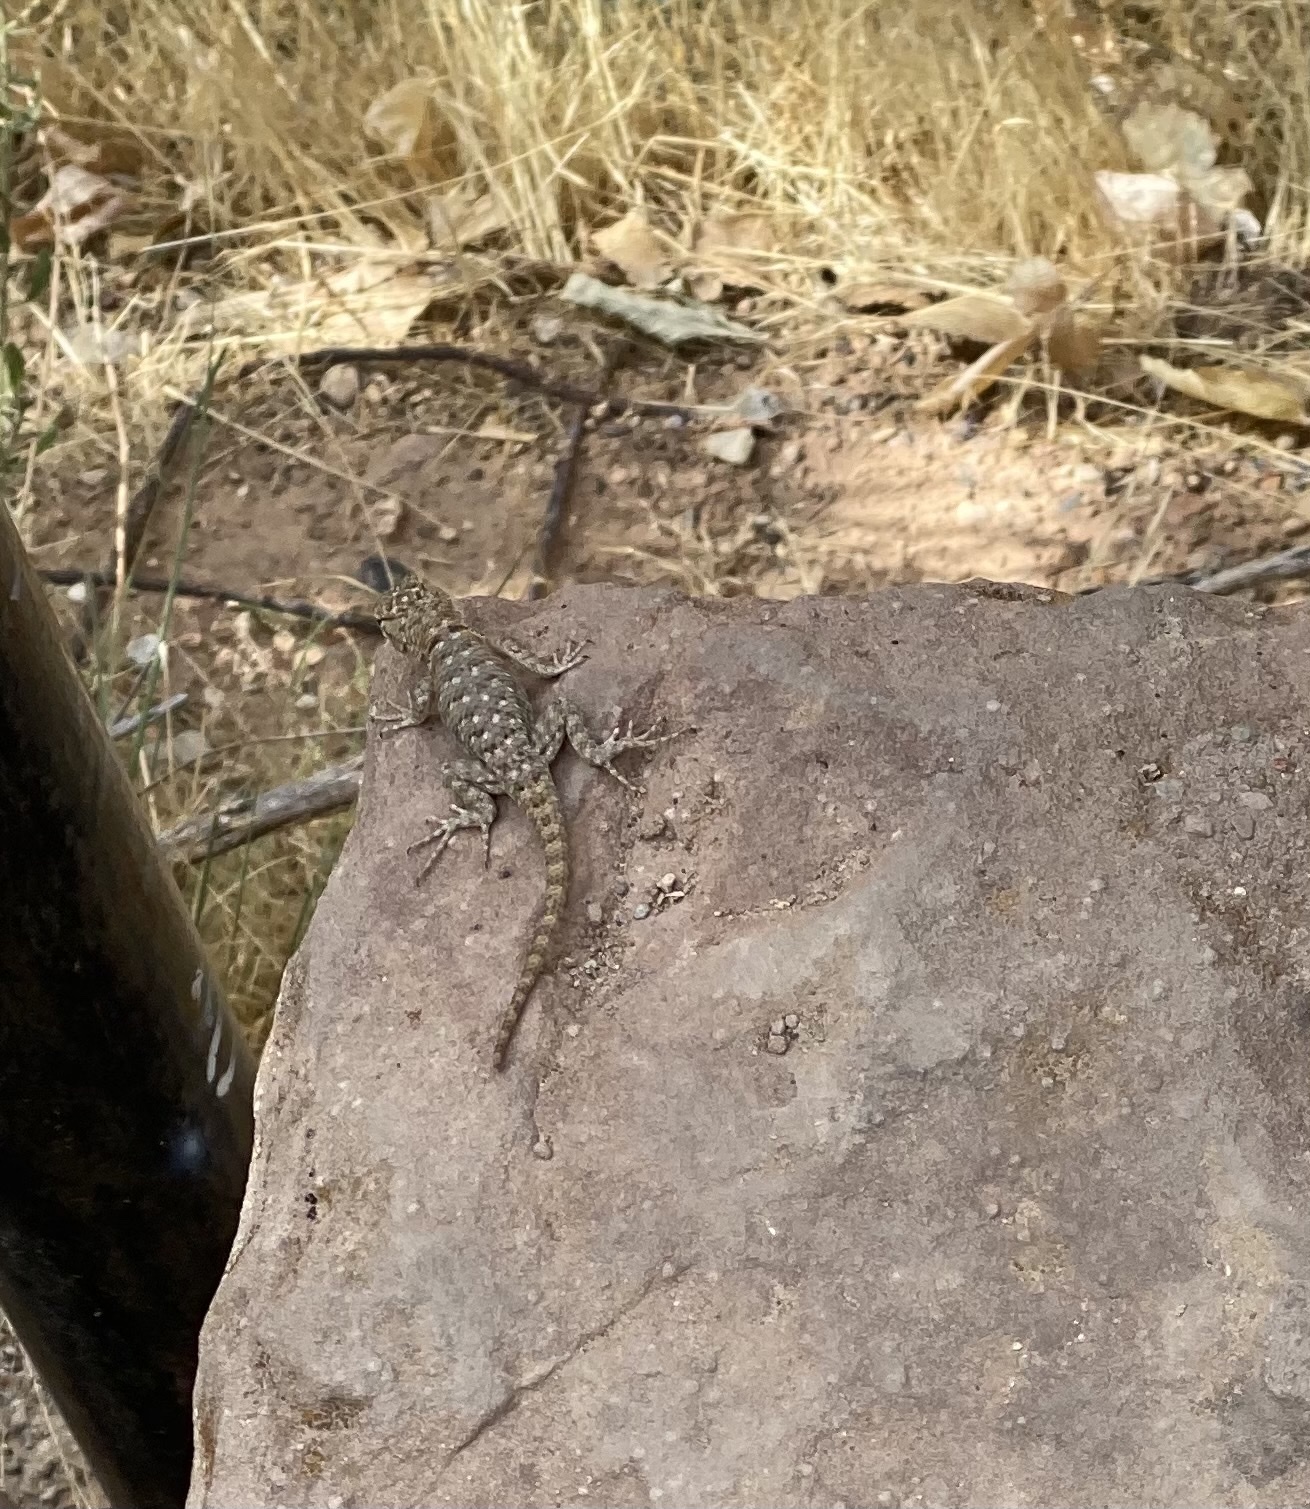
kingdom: Animalia
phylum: Chordata
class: Squamata
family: Phrynosomatidae
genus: Sceloporus
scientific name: Sceloporus uniformis
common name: Yellow-backed spiny lizard
